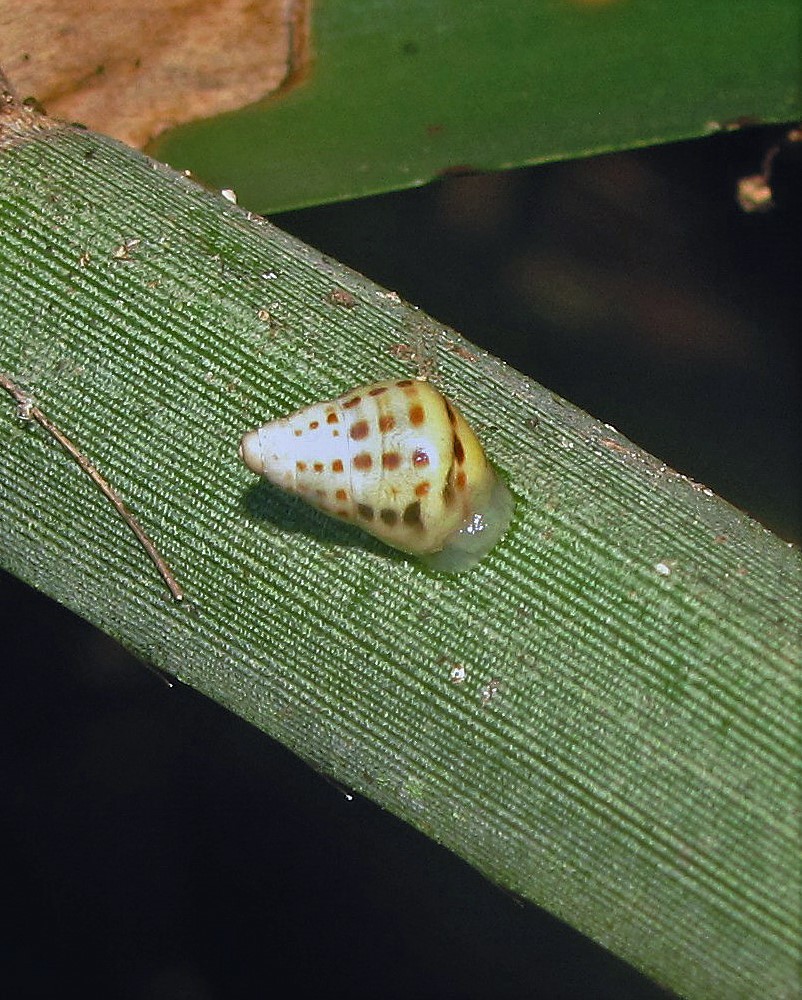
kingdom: Animalia
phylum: Mollusca
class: Gastropoda
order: Stylommatophora
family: Bulimulidae
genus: Drymaeus
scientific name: Drymaeus
